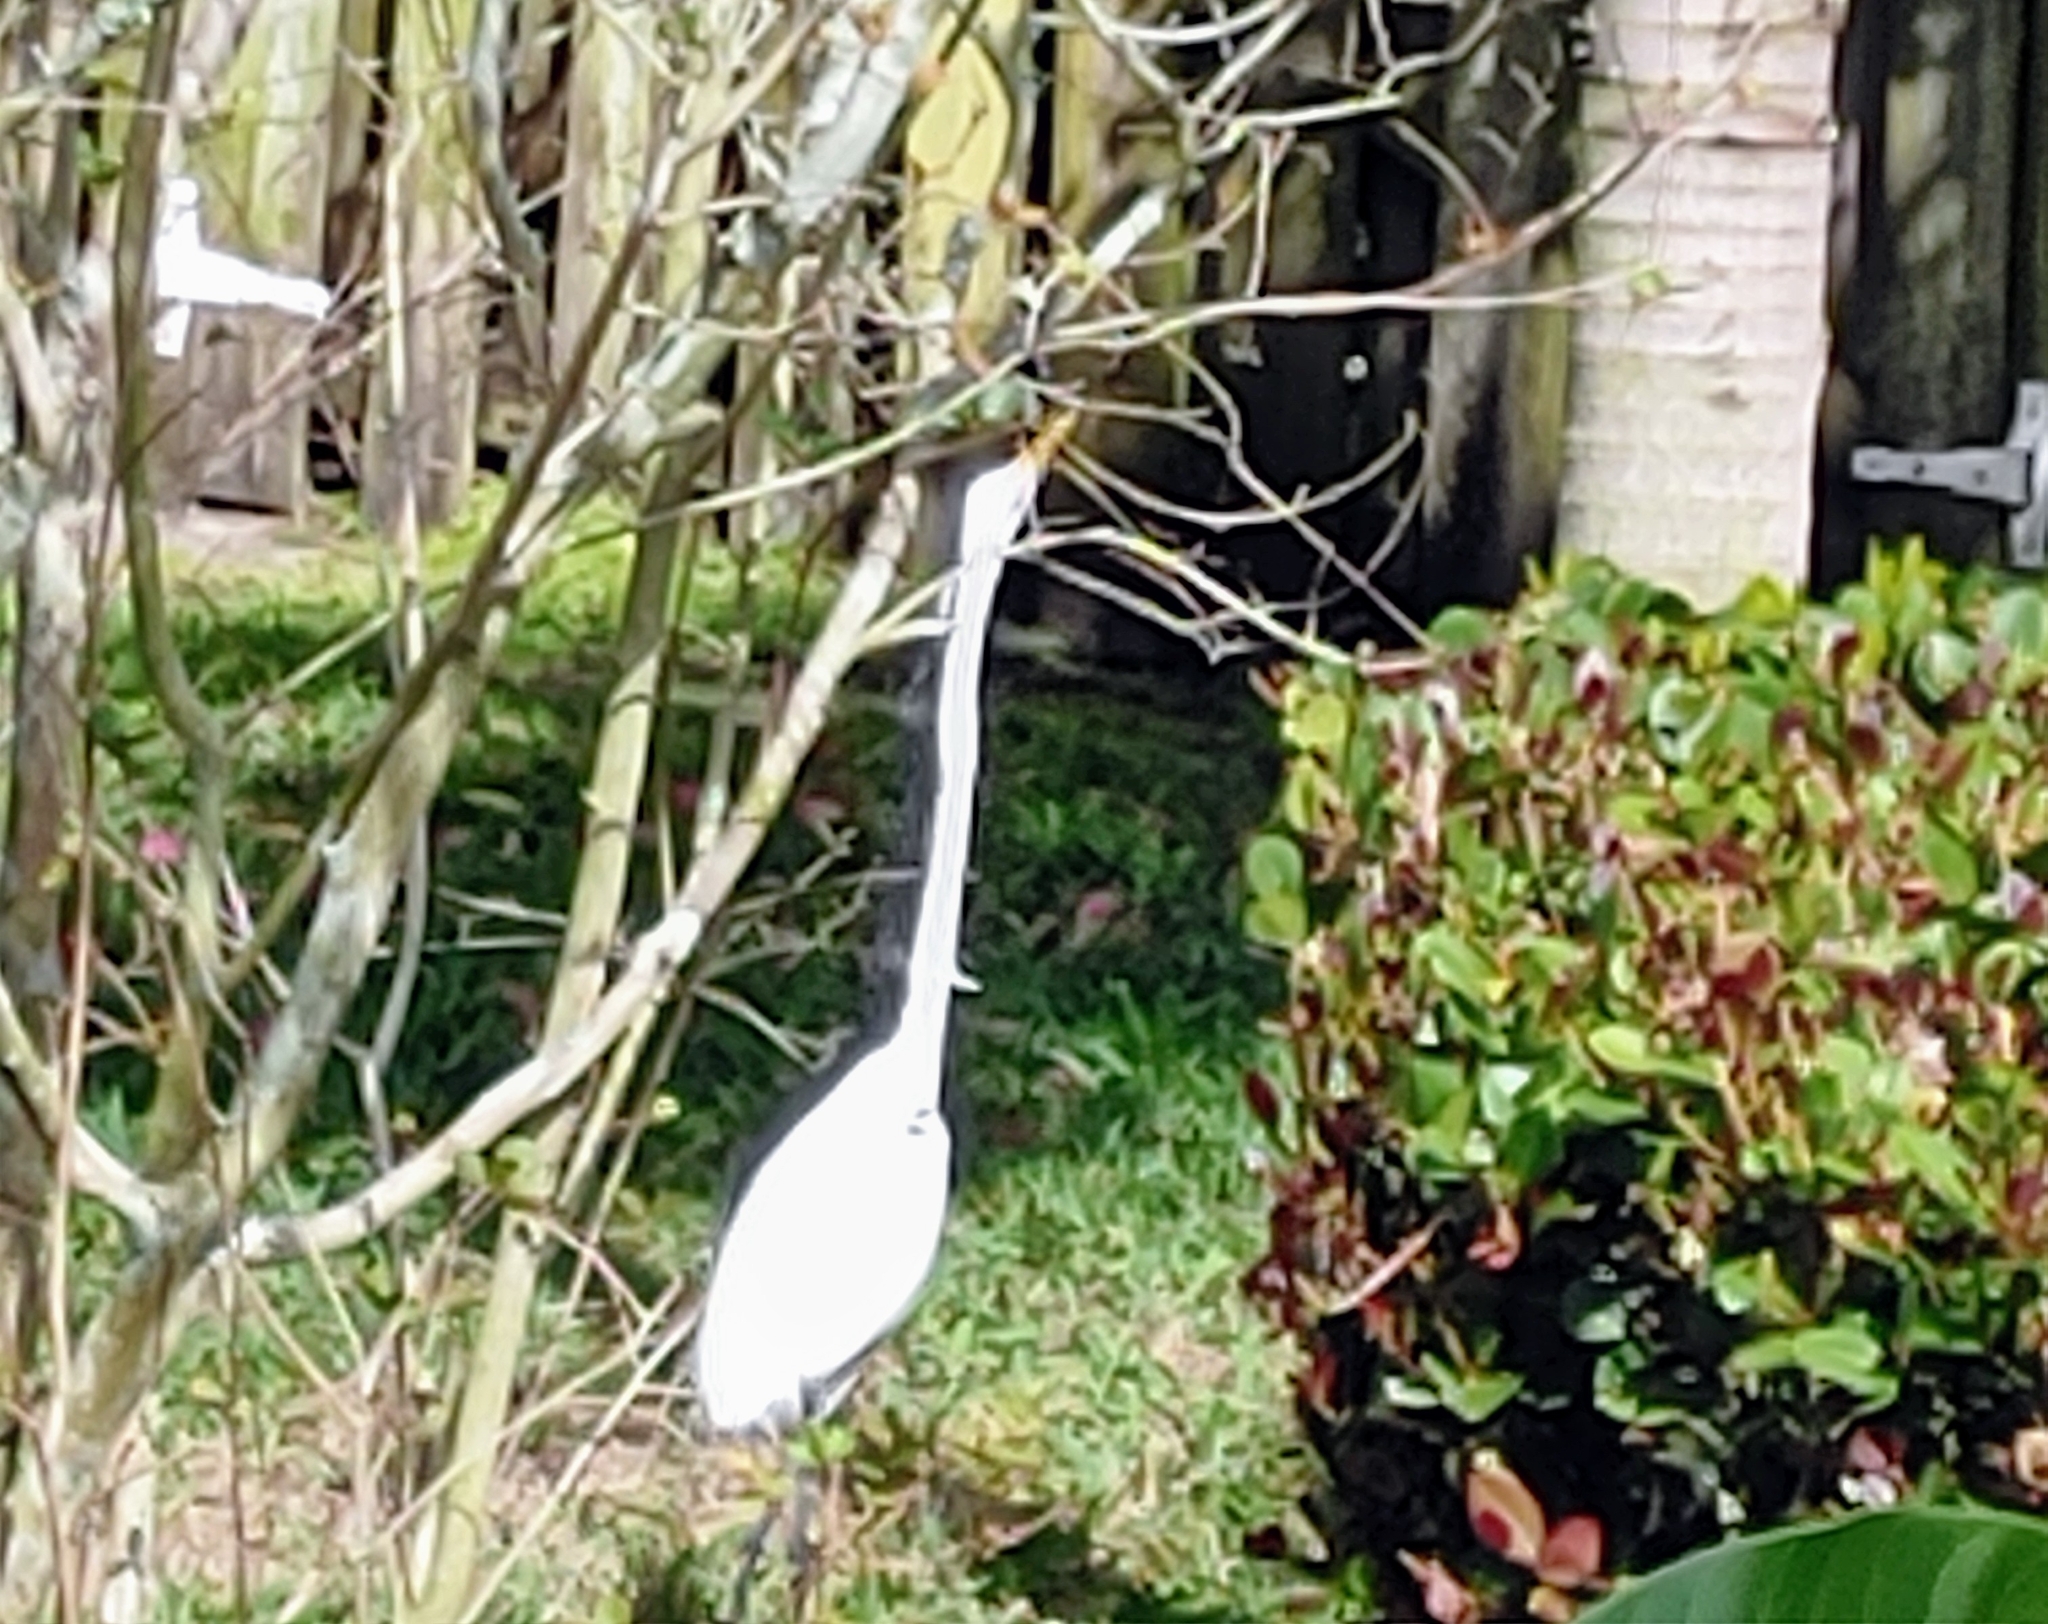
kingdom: Animalia
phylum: Chordata
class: Aves
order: Pelecaniformes
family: Ardeidae
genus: Ardea
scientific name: Ardea alba
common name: Great egret
